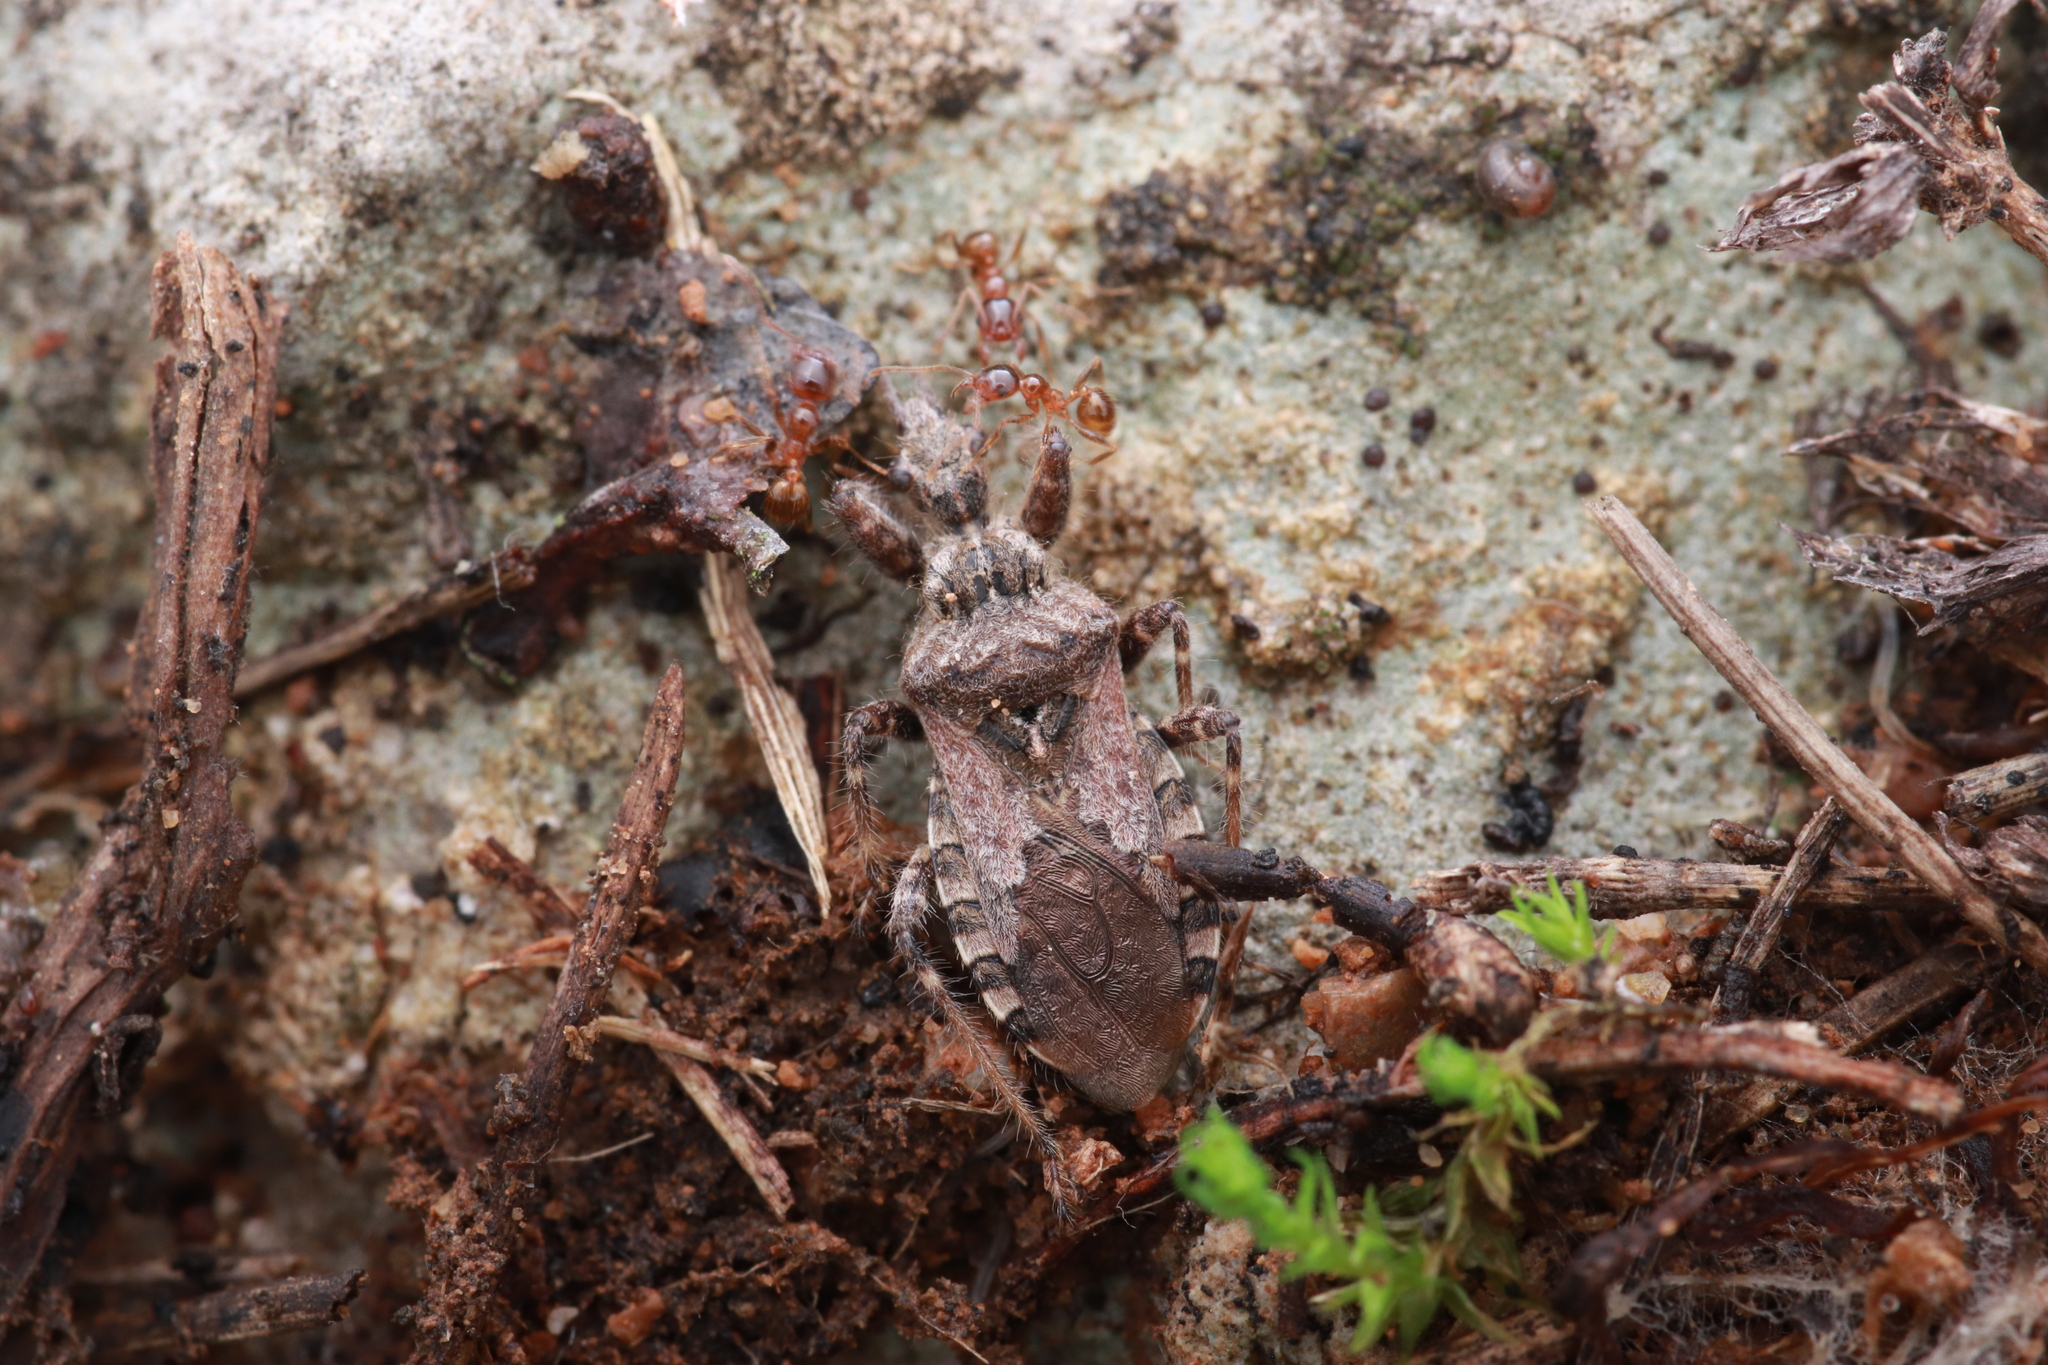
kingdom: Animalia
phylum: Arthropoda
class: Insecta
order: Hemiptera
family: Reduviidae
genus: Coranus
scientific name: Coranus griseus
